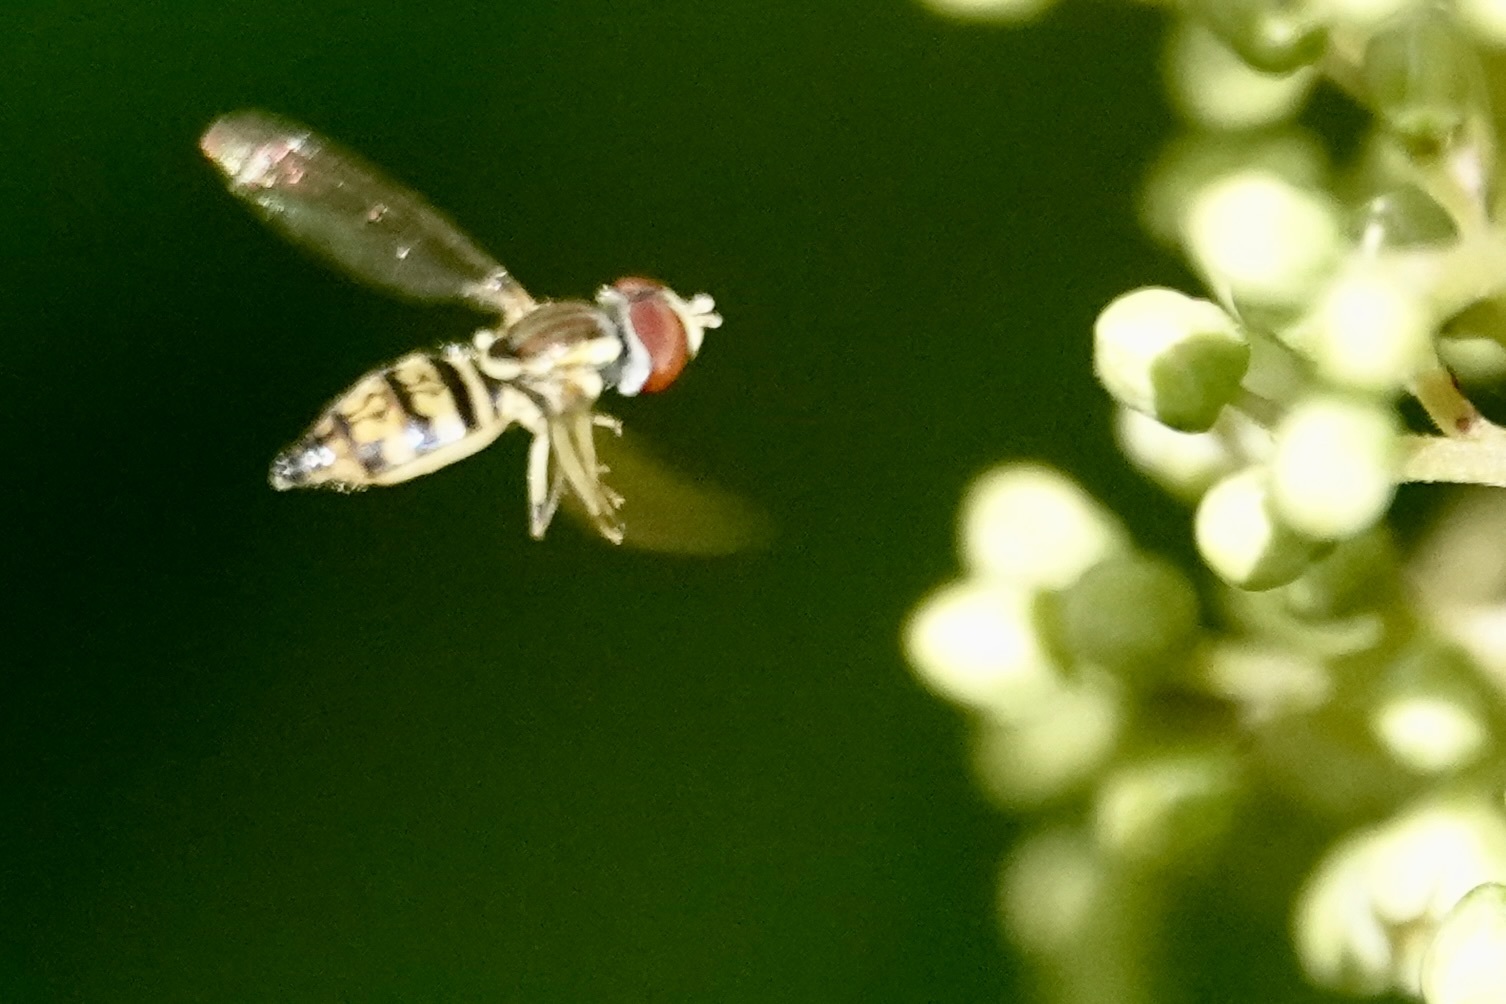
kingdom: Animalia
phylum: Arthropoda
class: Insecta
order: Diptera
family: Syrphidae
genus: Toxomerus
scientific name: Toxomerus geminatus
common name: Eastern calligrapher
